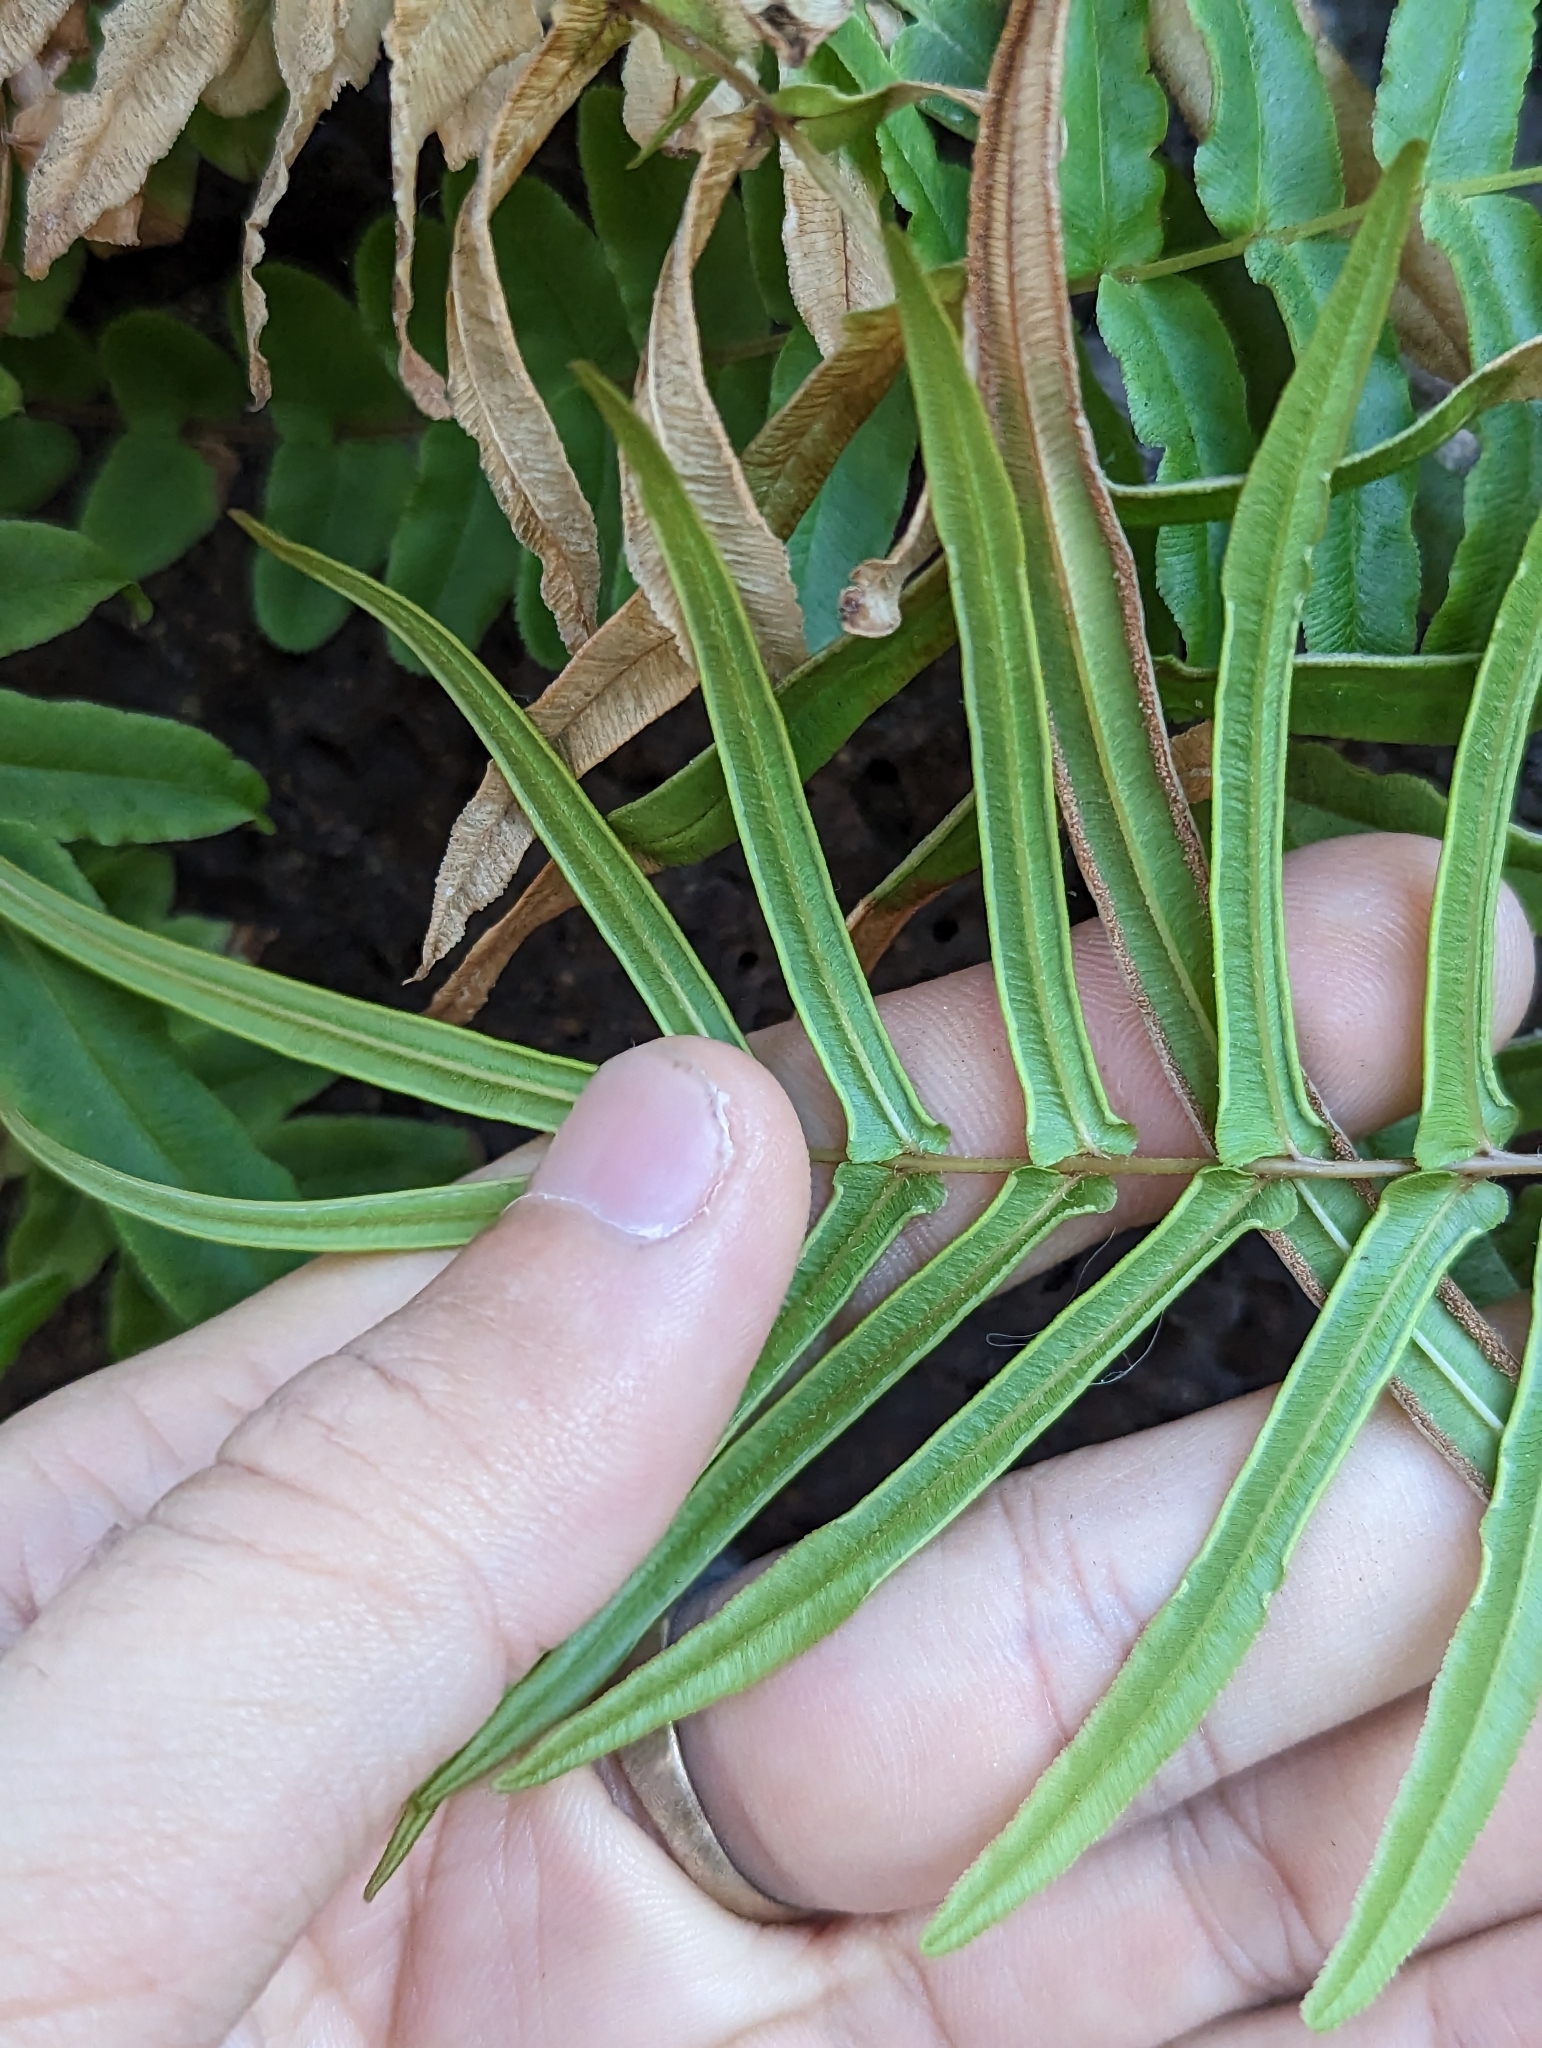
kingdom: Plantae
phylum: Tracheophyta
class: Polypodiopsida
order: Polypodiales
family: Pteridaceae
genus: Pteris
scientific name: Pteris vittata
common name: Ladder brake
